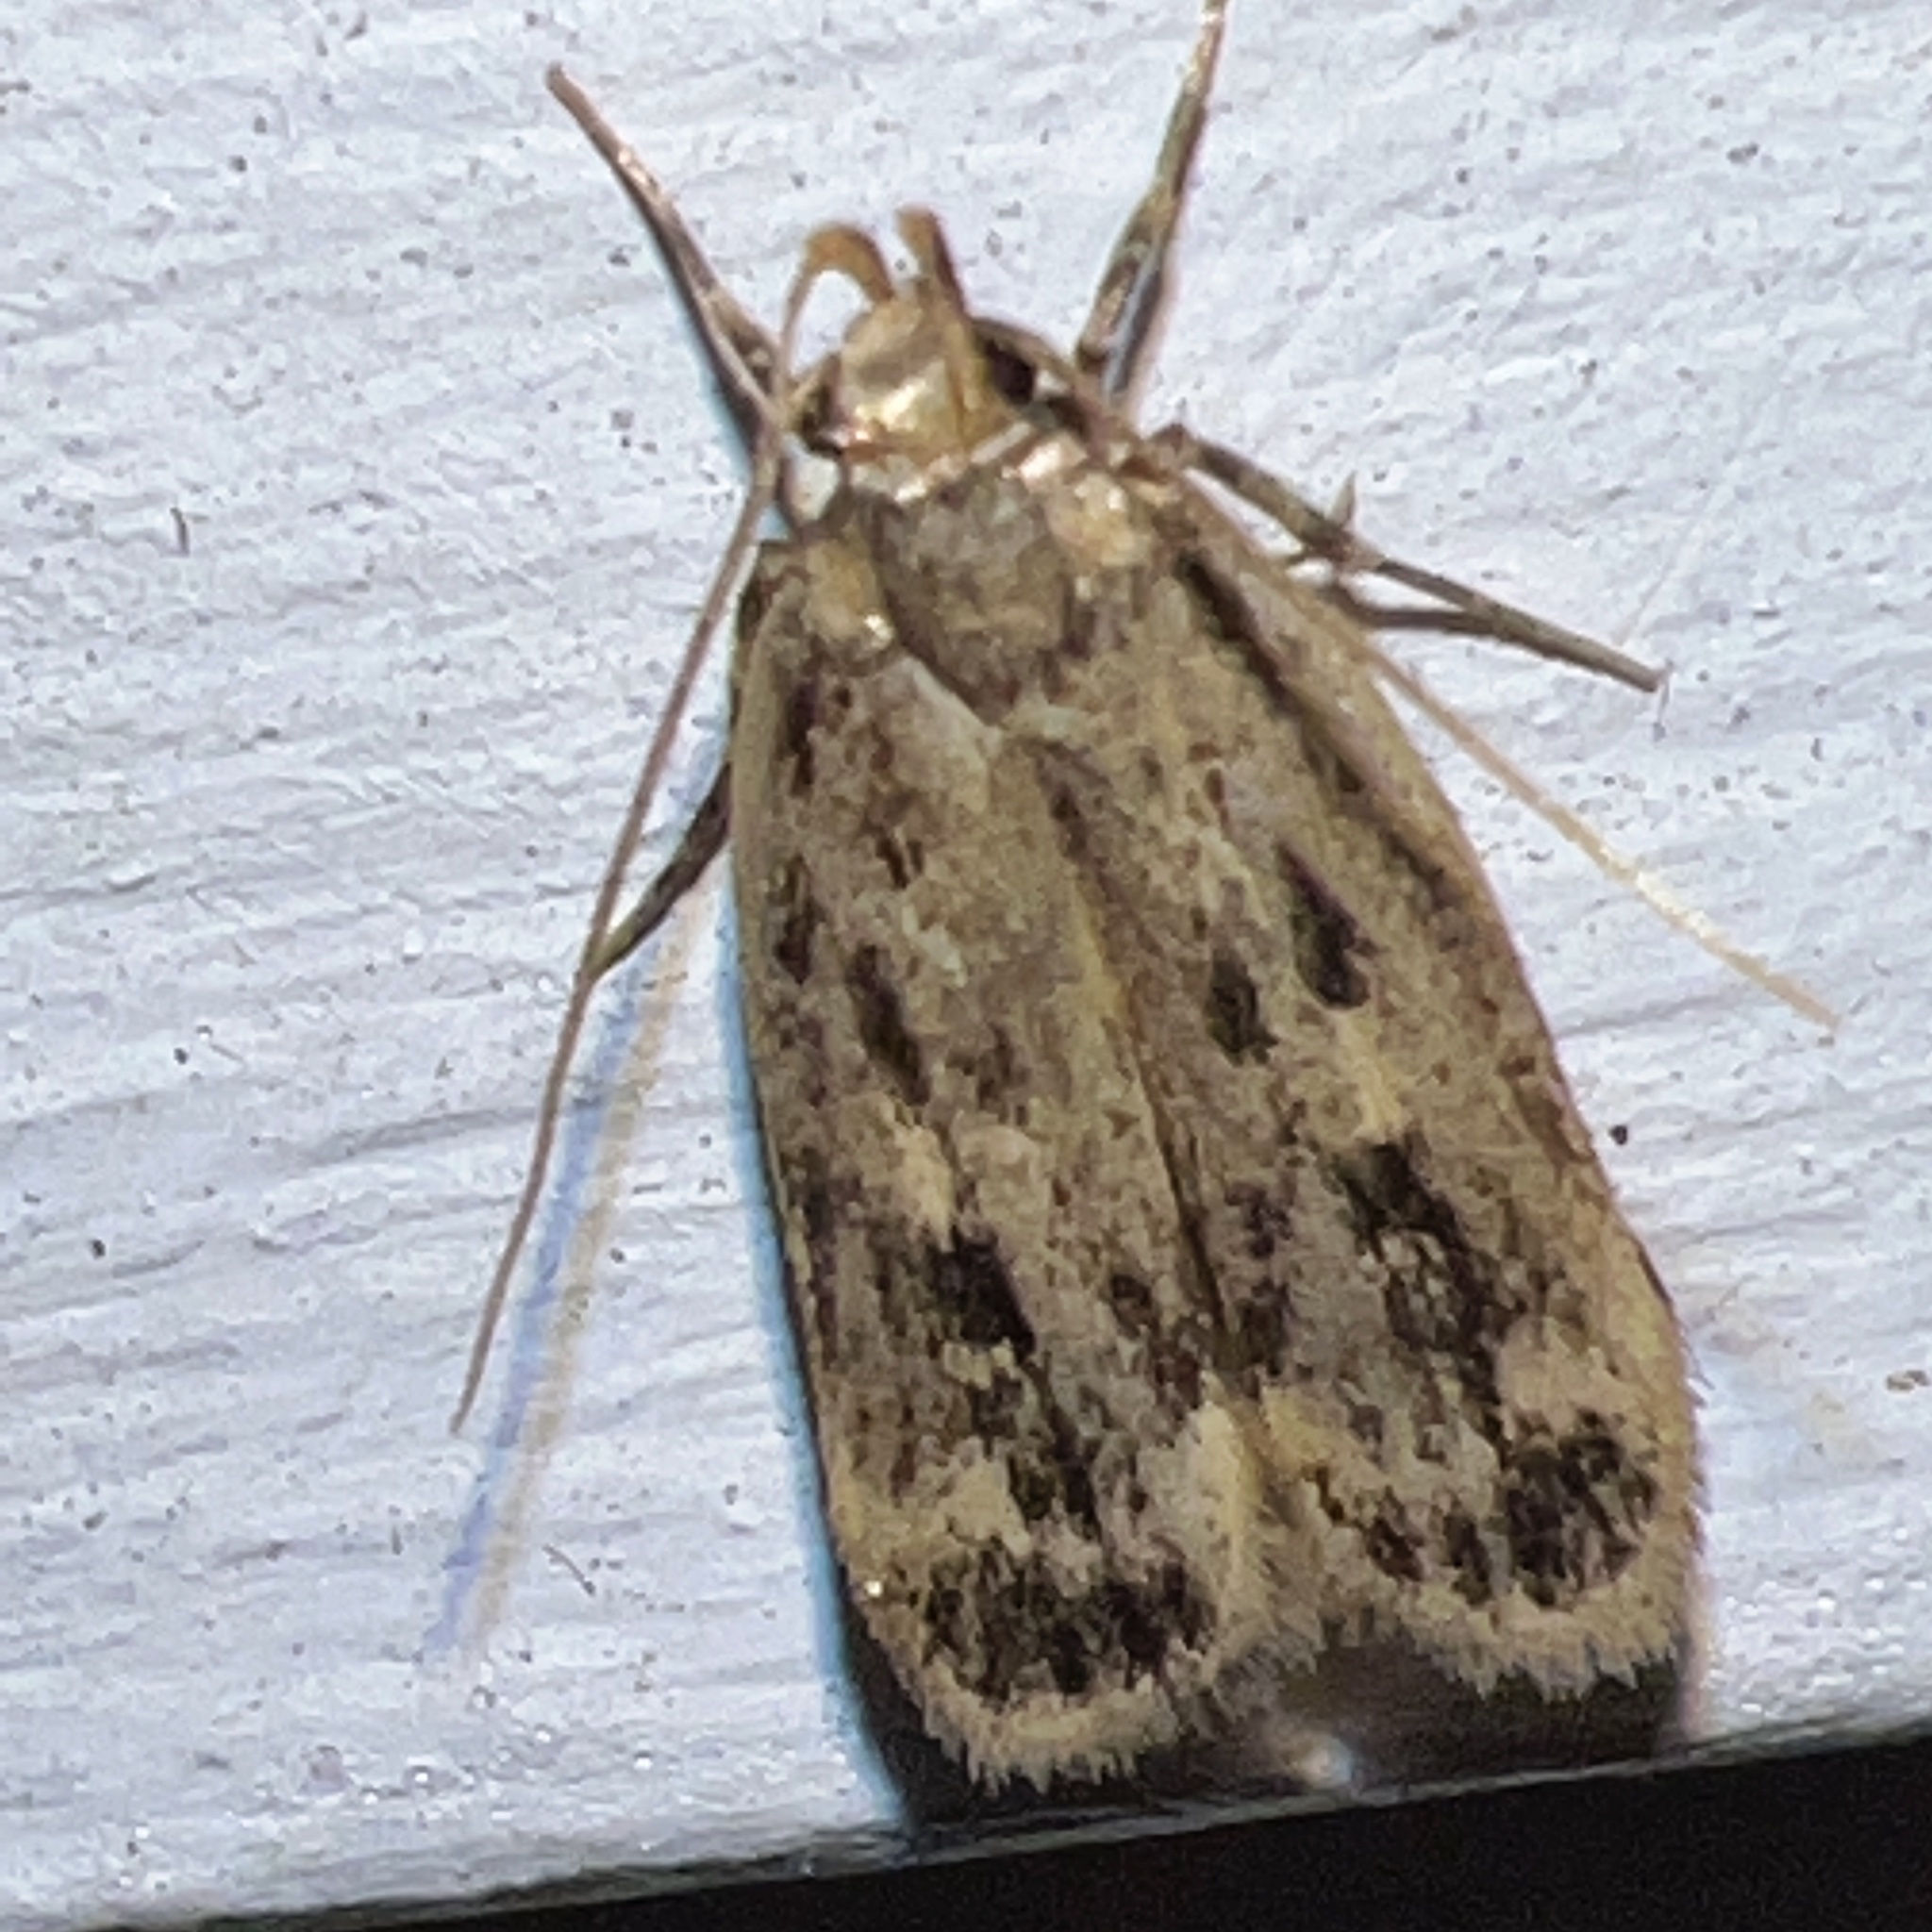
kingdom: Animalia
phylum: Arthropoda
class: Insecta
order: Lepidoptera
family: Lecithoceridae
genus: Martyringa
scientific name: Martyringa latipennis
